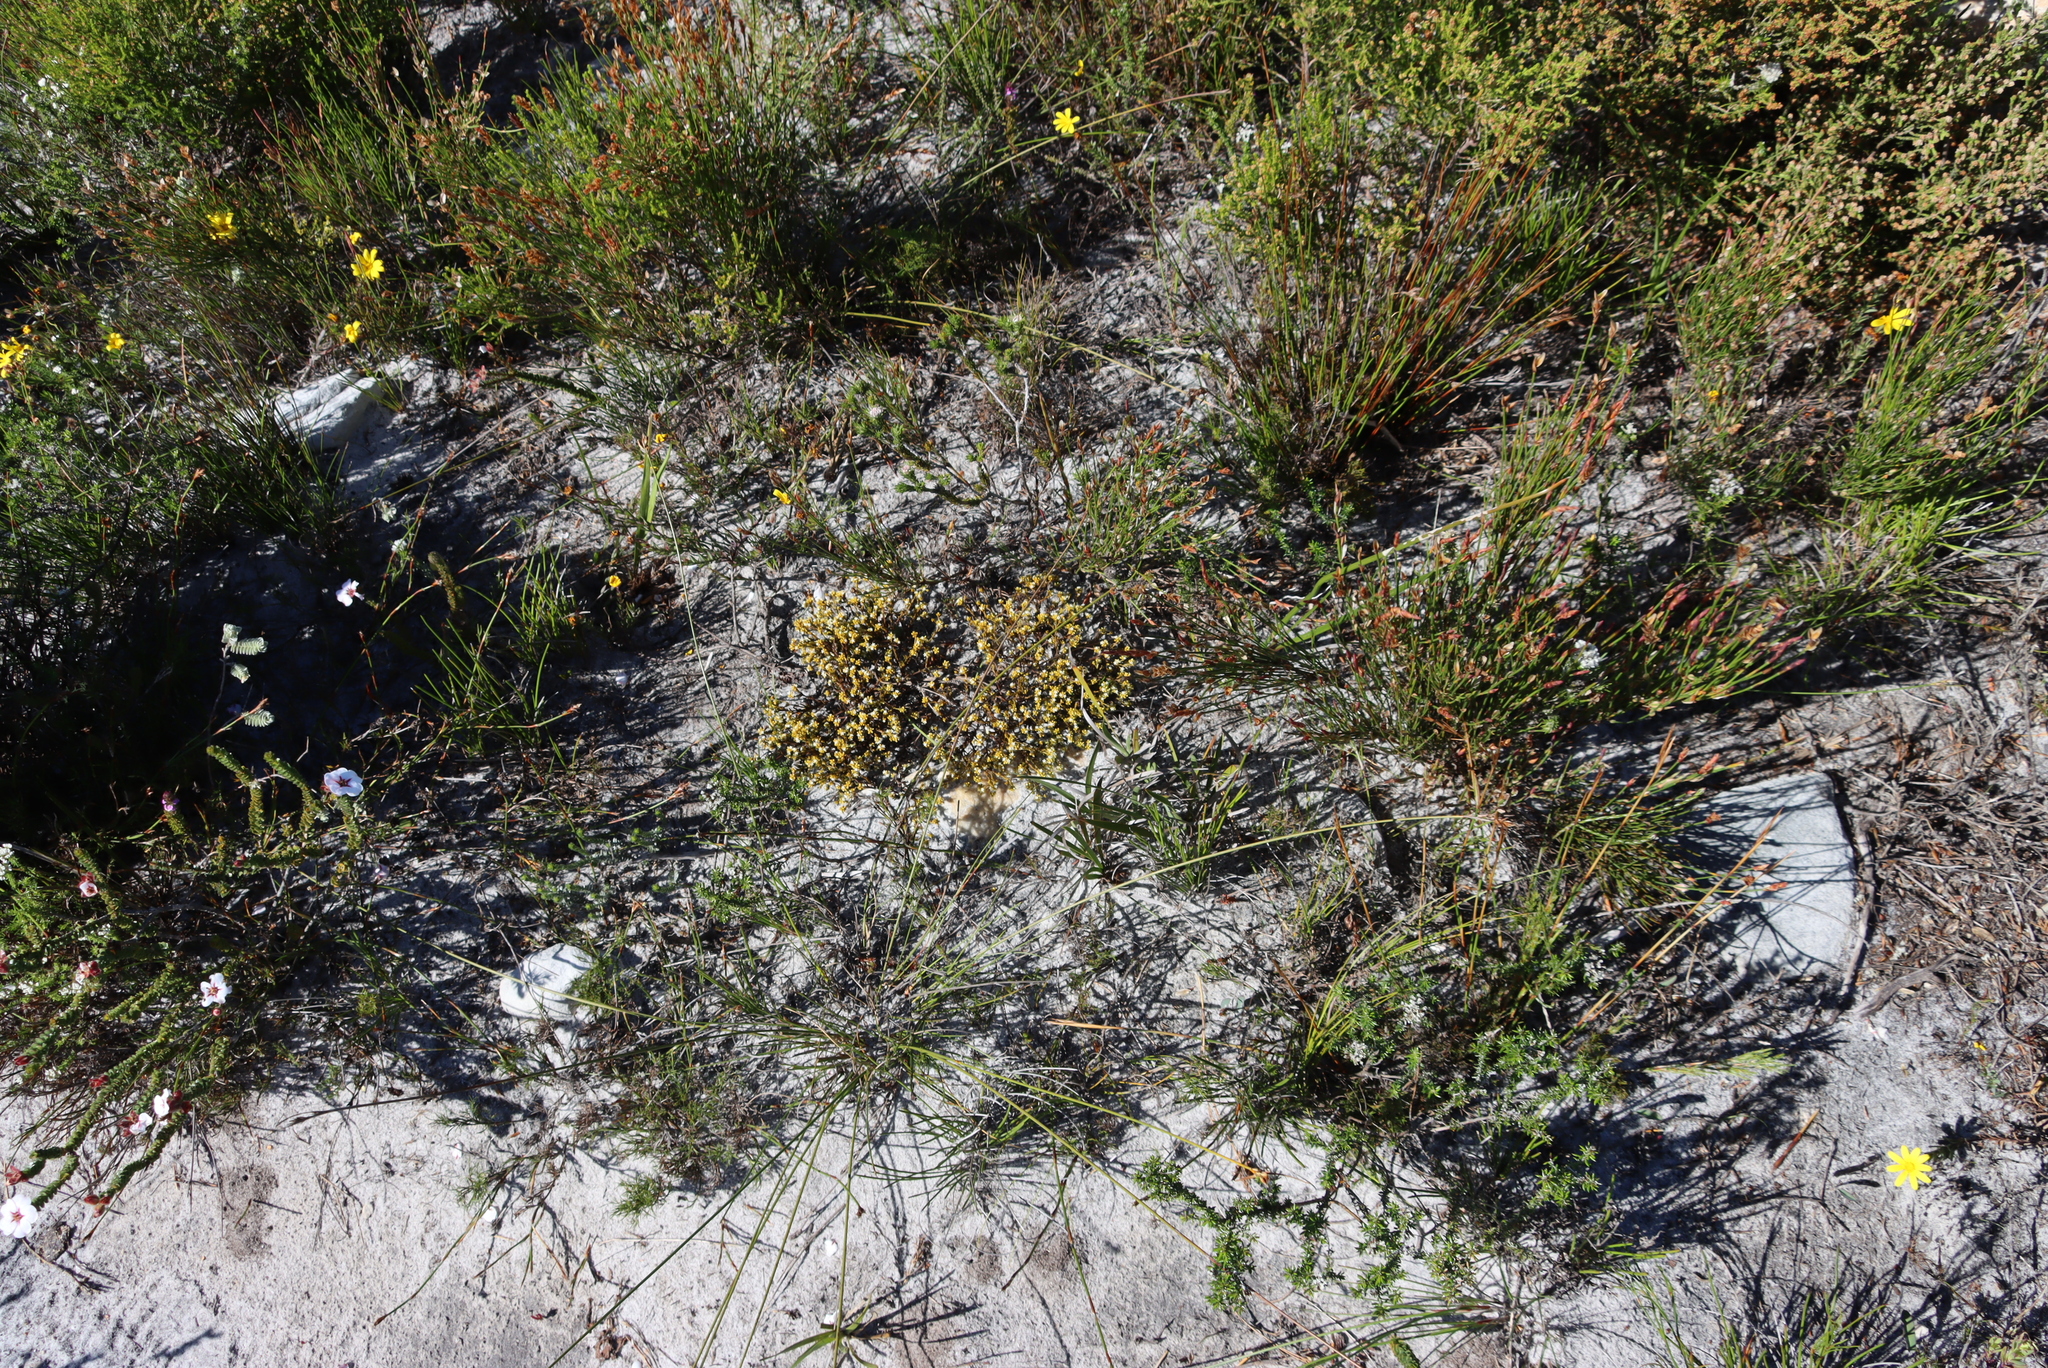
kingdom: Plantae
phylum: Tracheophyta
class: Magnoliopsida
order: Santalales
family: Thesiaceae
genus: Thesium
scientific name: Thesium acuminatum
